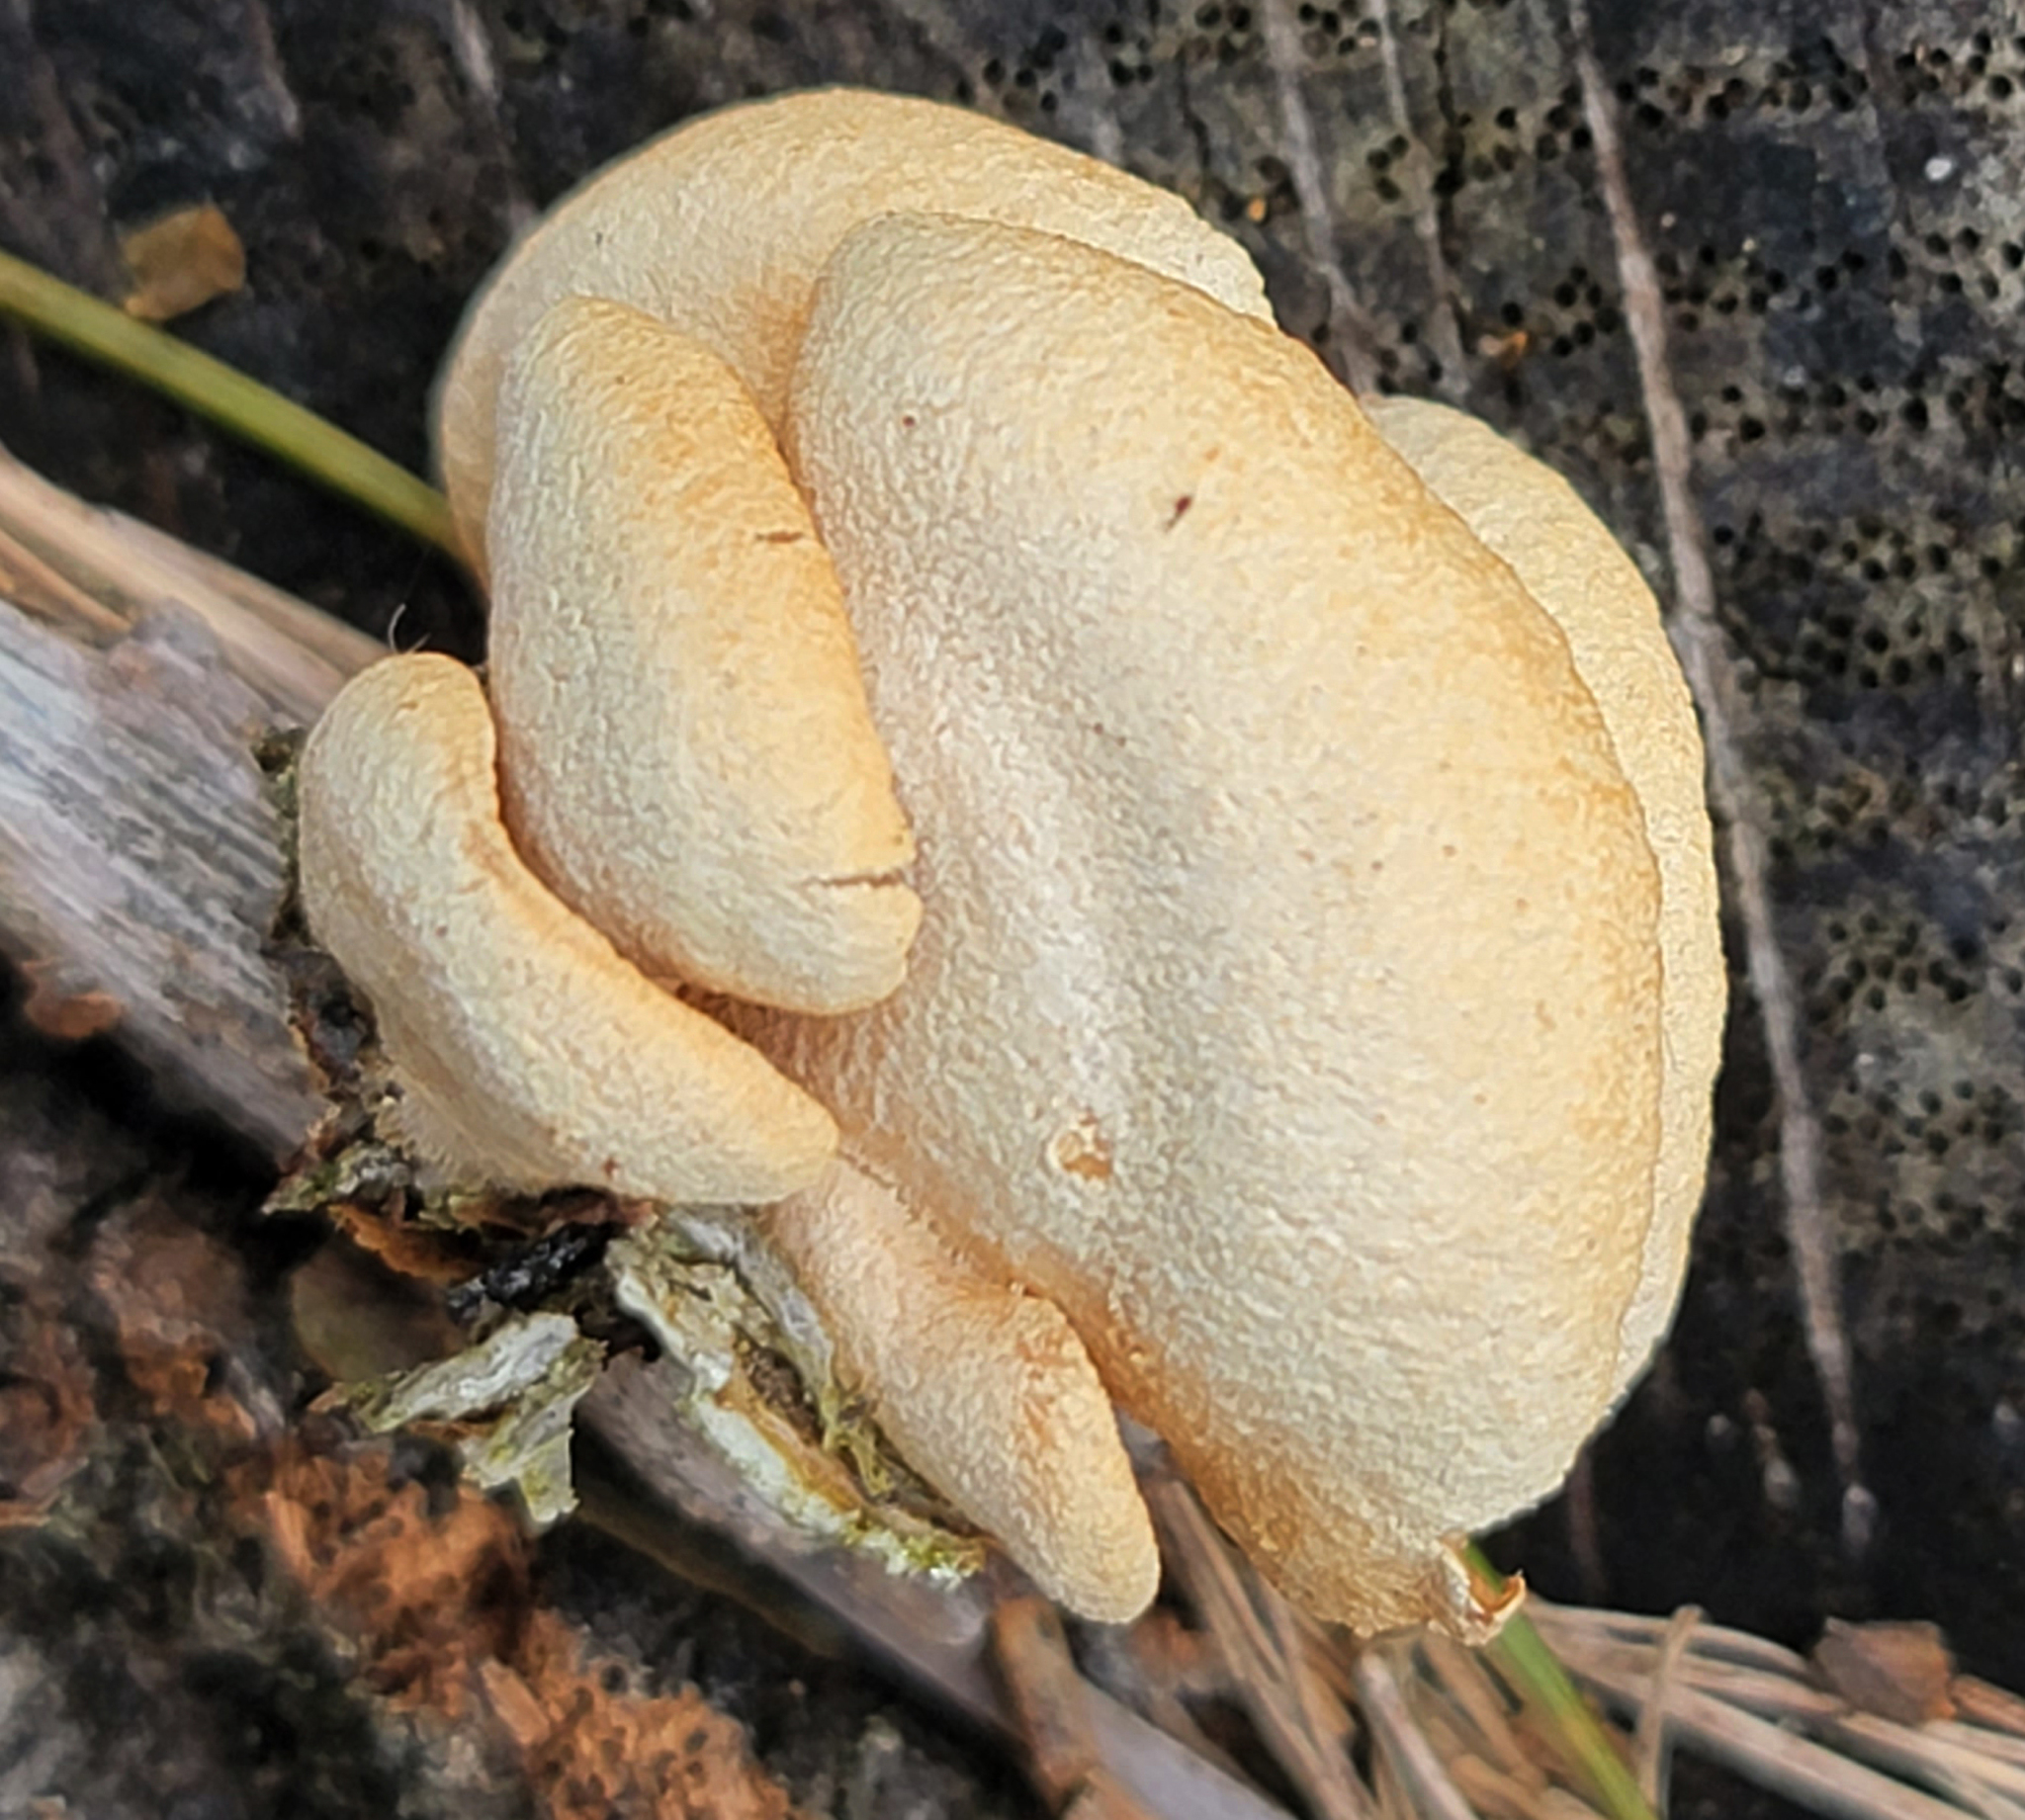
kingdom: Fungi
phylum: Basidiomycota
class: Agaricomycetes
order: Agaricales
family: Mycenaceae
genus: Panellus
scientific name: Panellus stipticus
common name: Bitter oysterling
